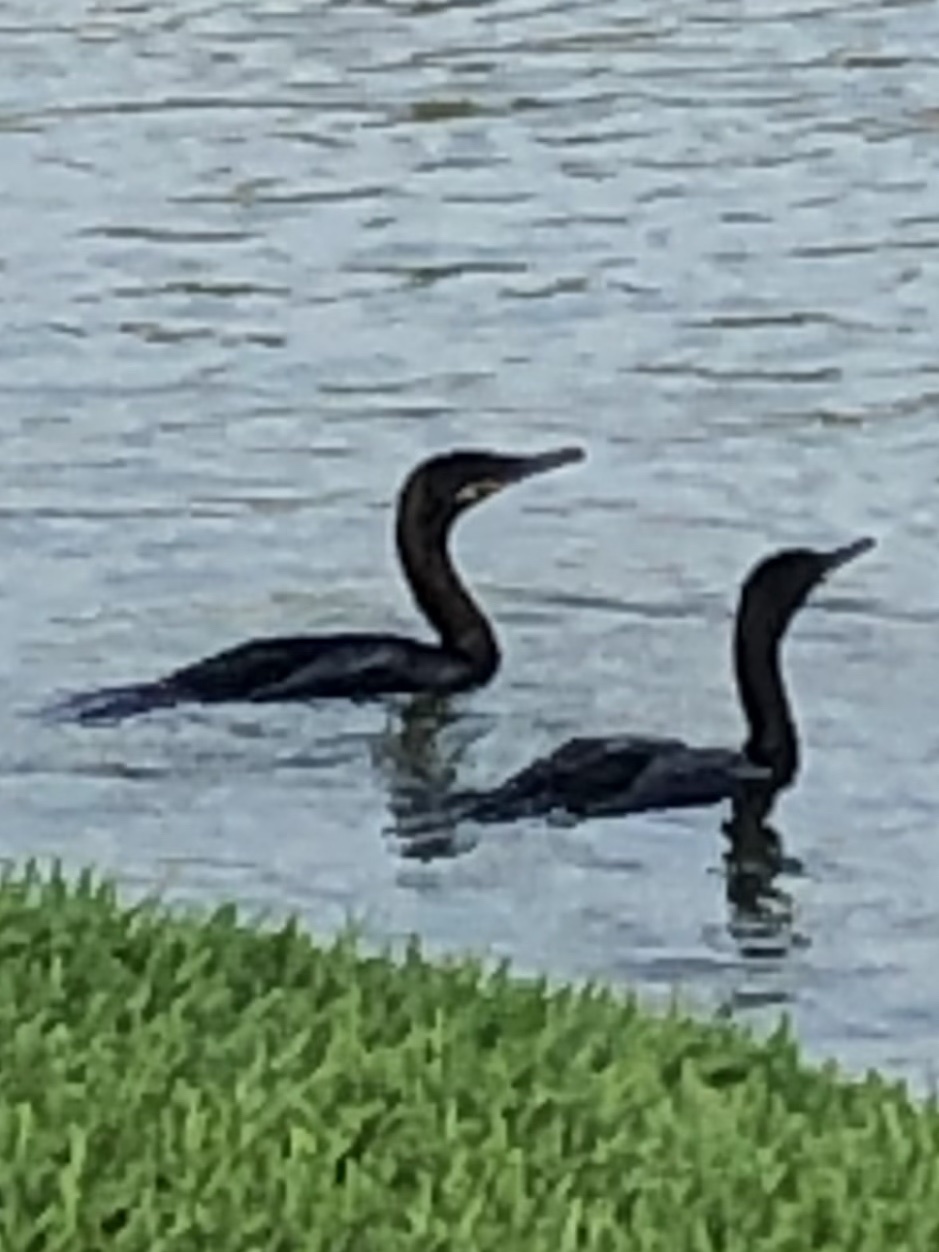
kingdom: Animalia
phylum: Chordata
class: Aves
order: Suliformes
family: Phalacrocoracidae
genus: Phalacrocorax
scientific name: Phalacrocorax brasilianus
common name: Neotropic cormorant
